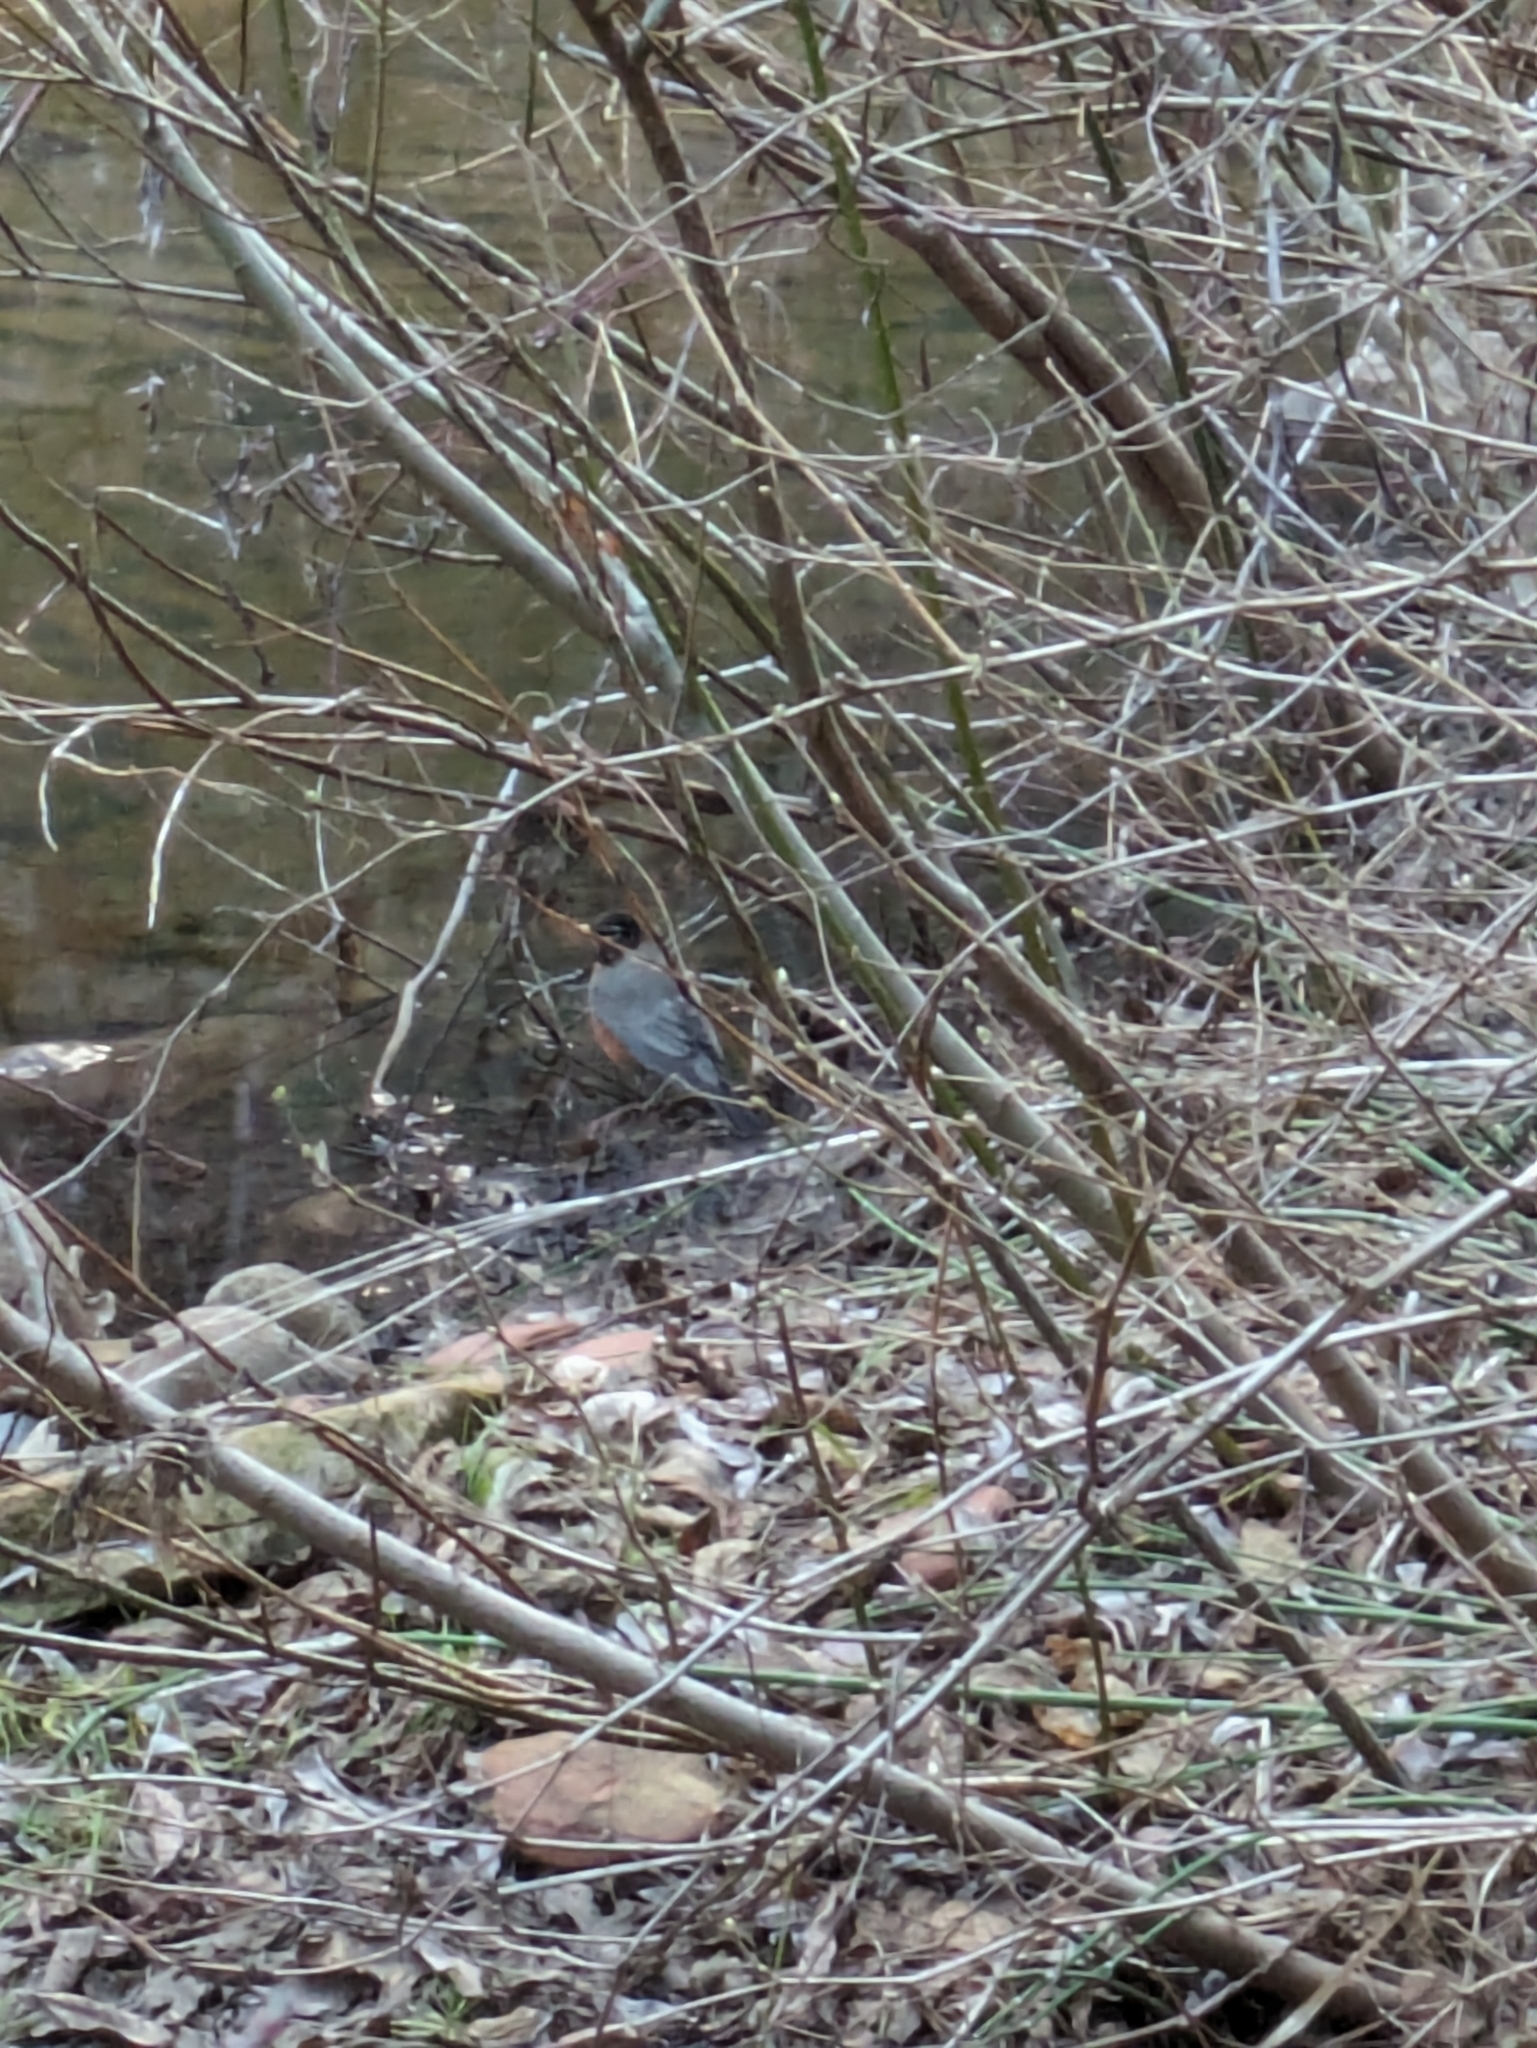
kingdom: Animalia
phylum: Chordata
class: Aves
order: Passeriformes
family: Turdidae
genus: Turdus
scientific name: Turdus migratorius
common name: American robin
